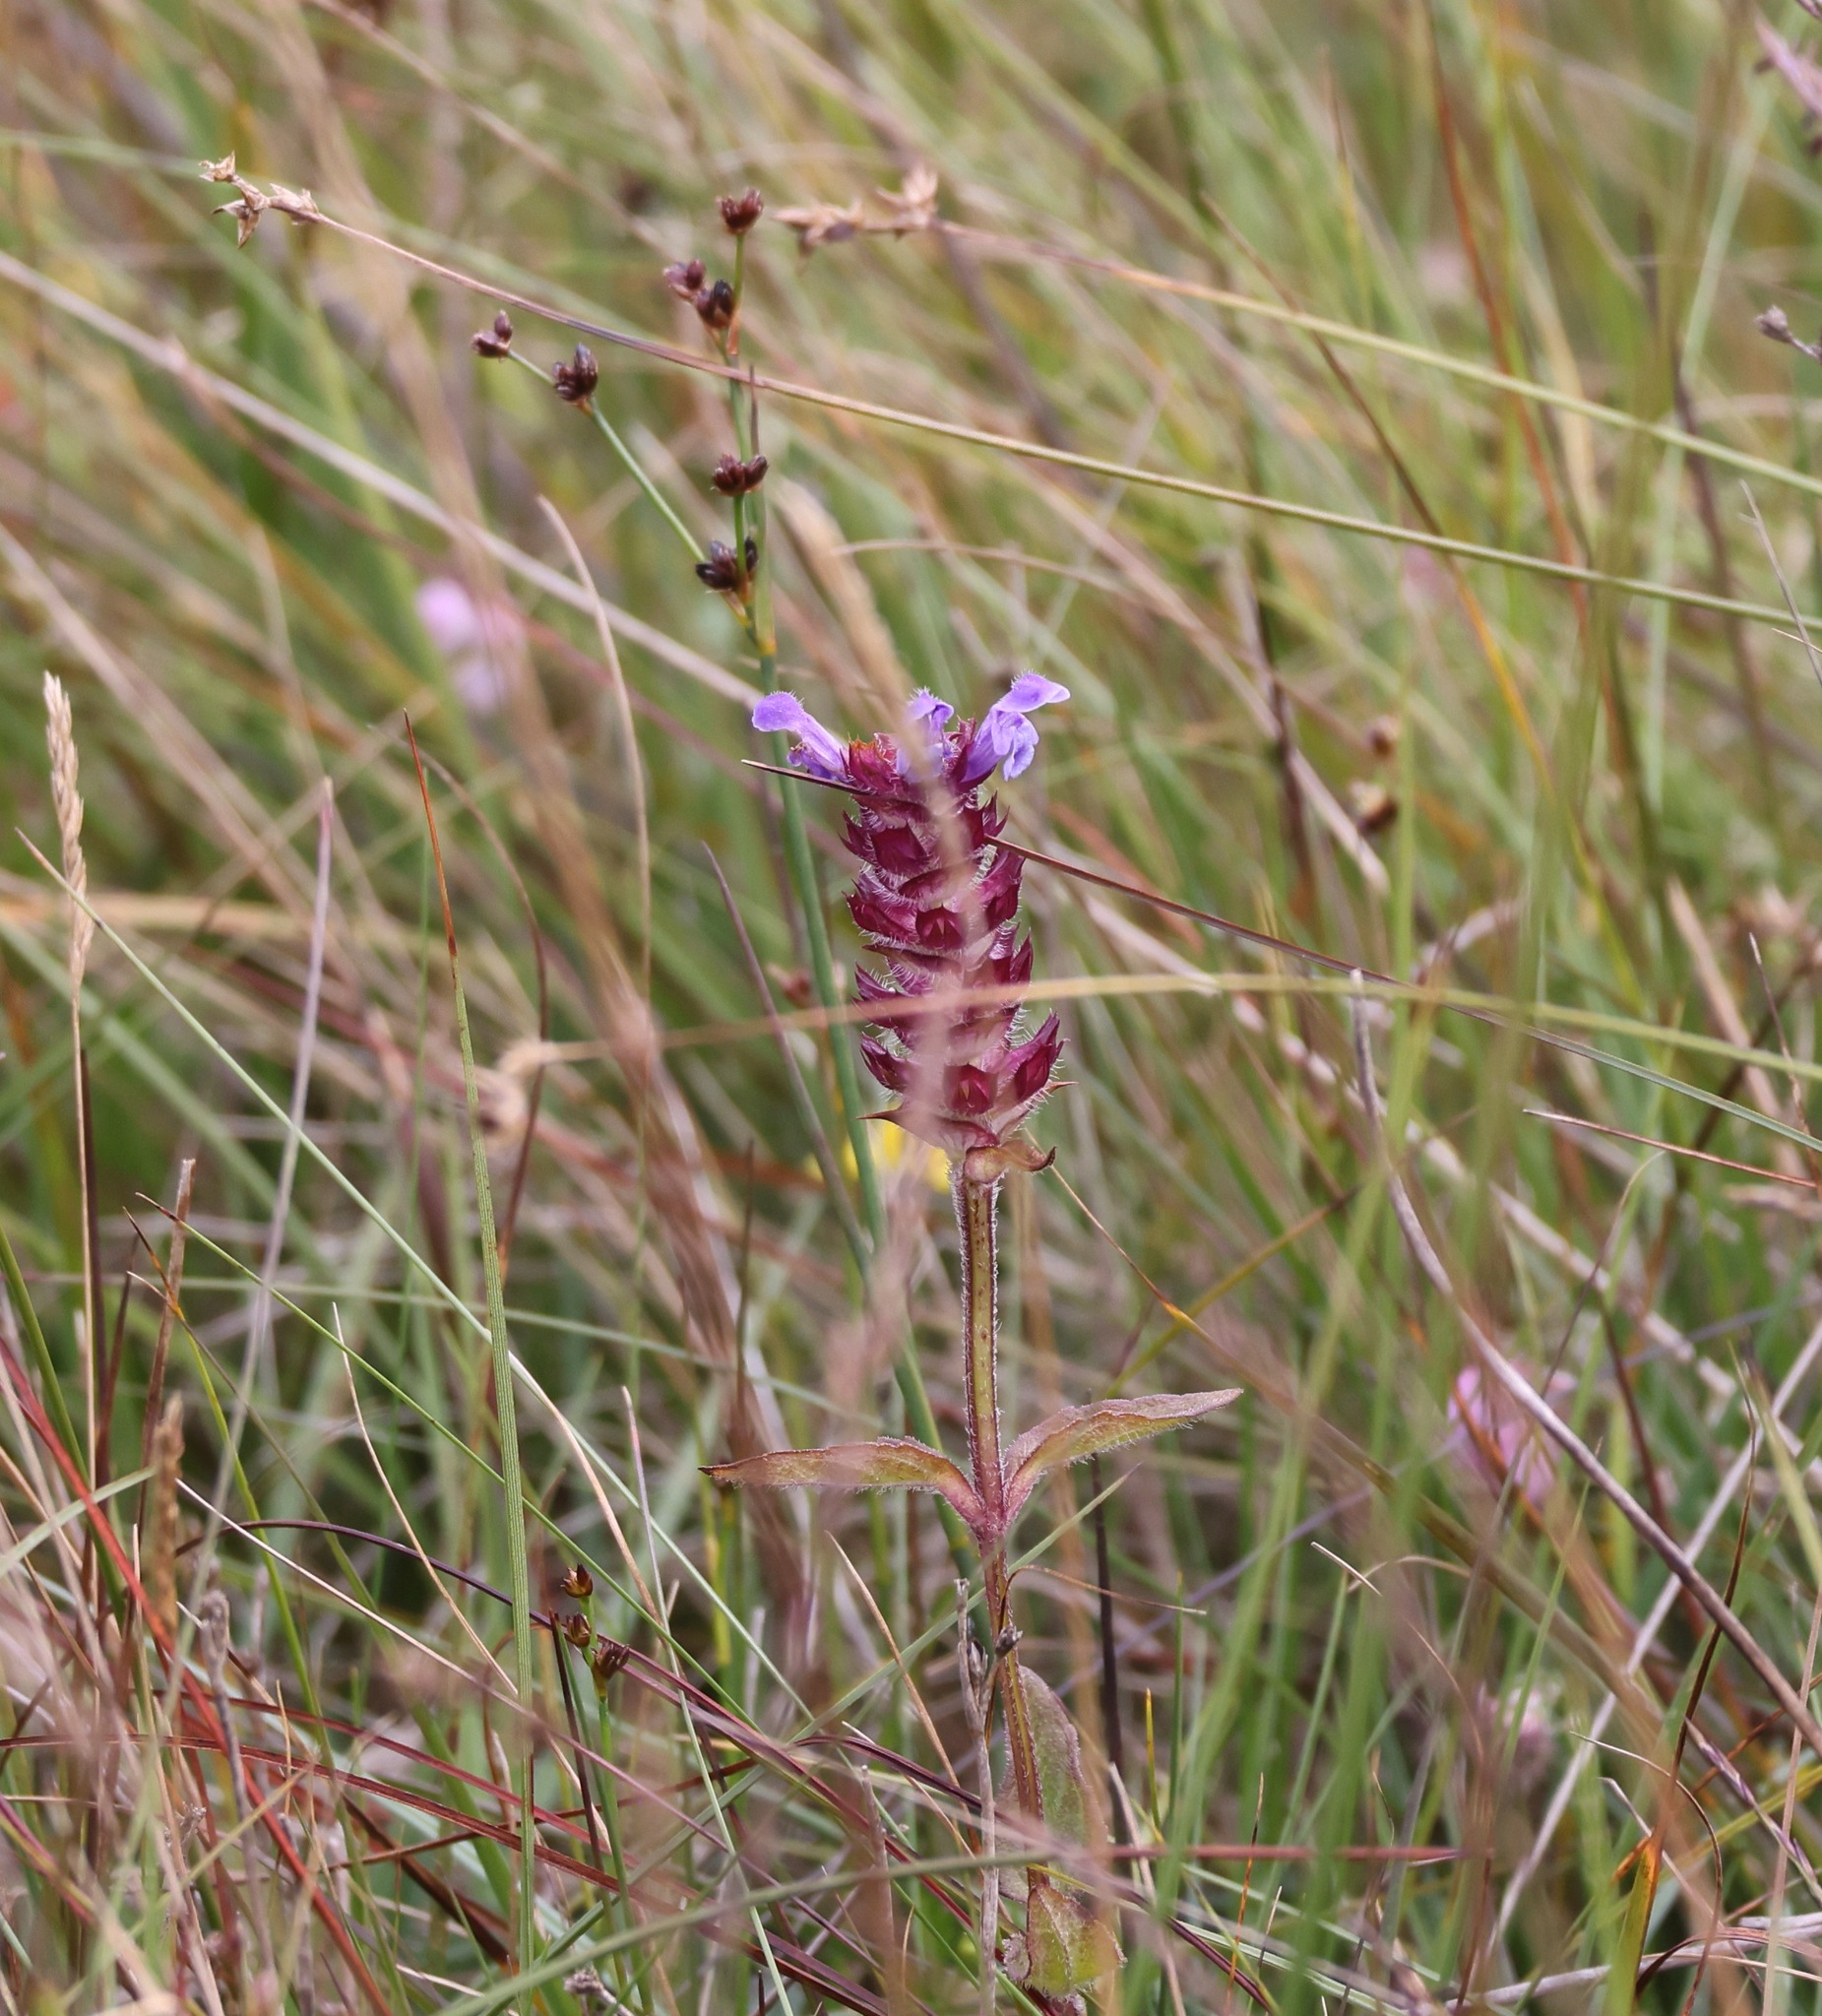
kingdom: Plantae
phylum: Tracheophyta
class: Magnoliopsida
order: Lamiales
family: Lamiaceae
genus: Prunella
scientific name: Prunella vulgaris
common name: Heal-all
